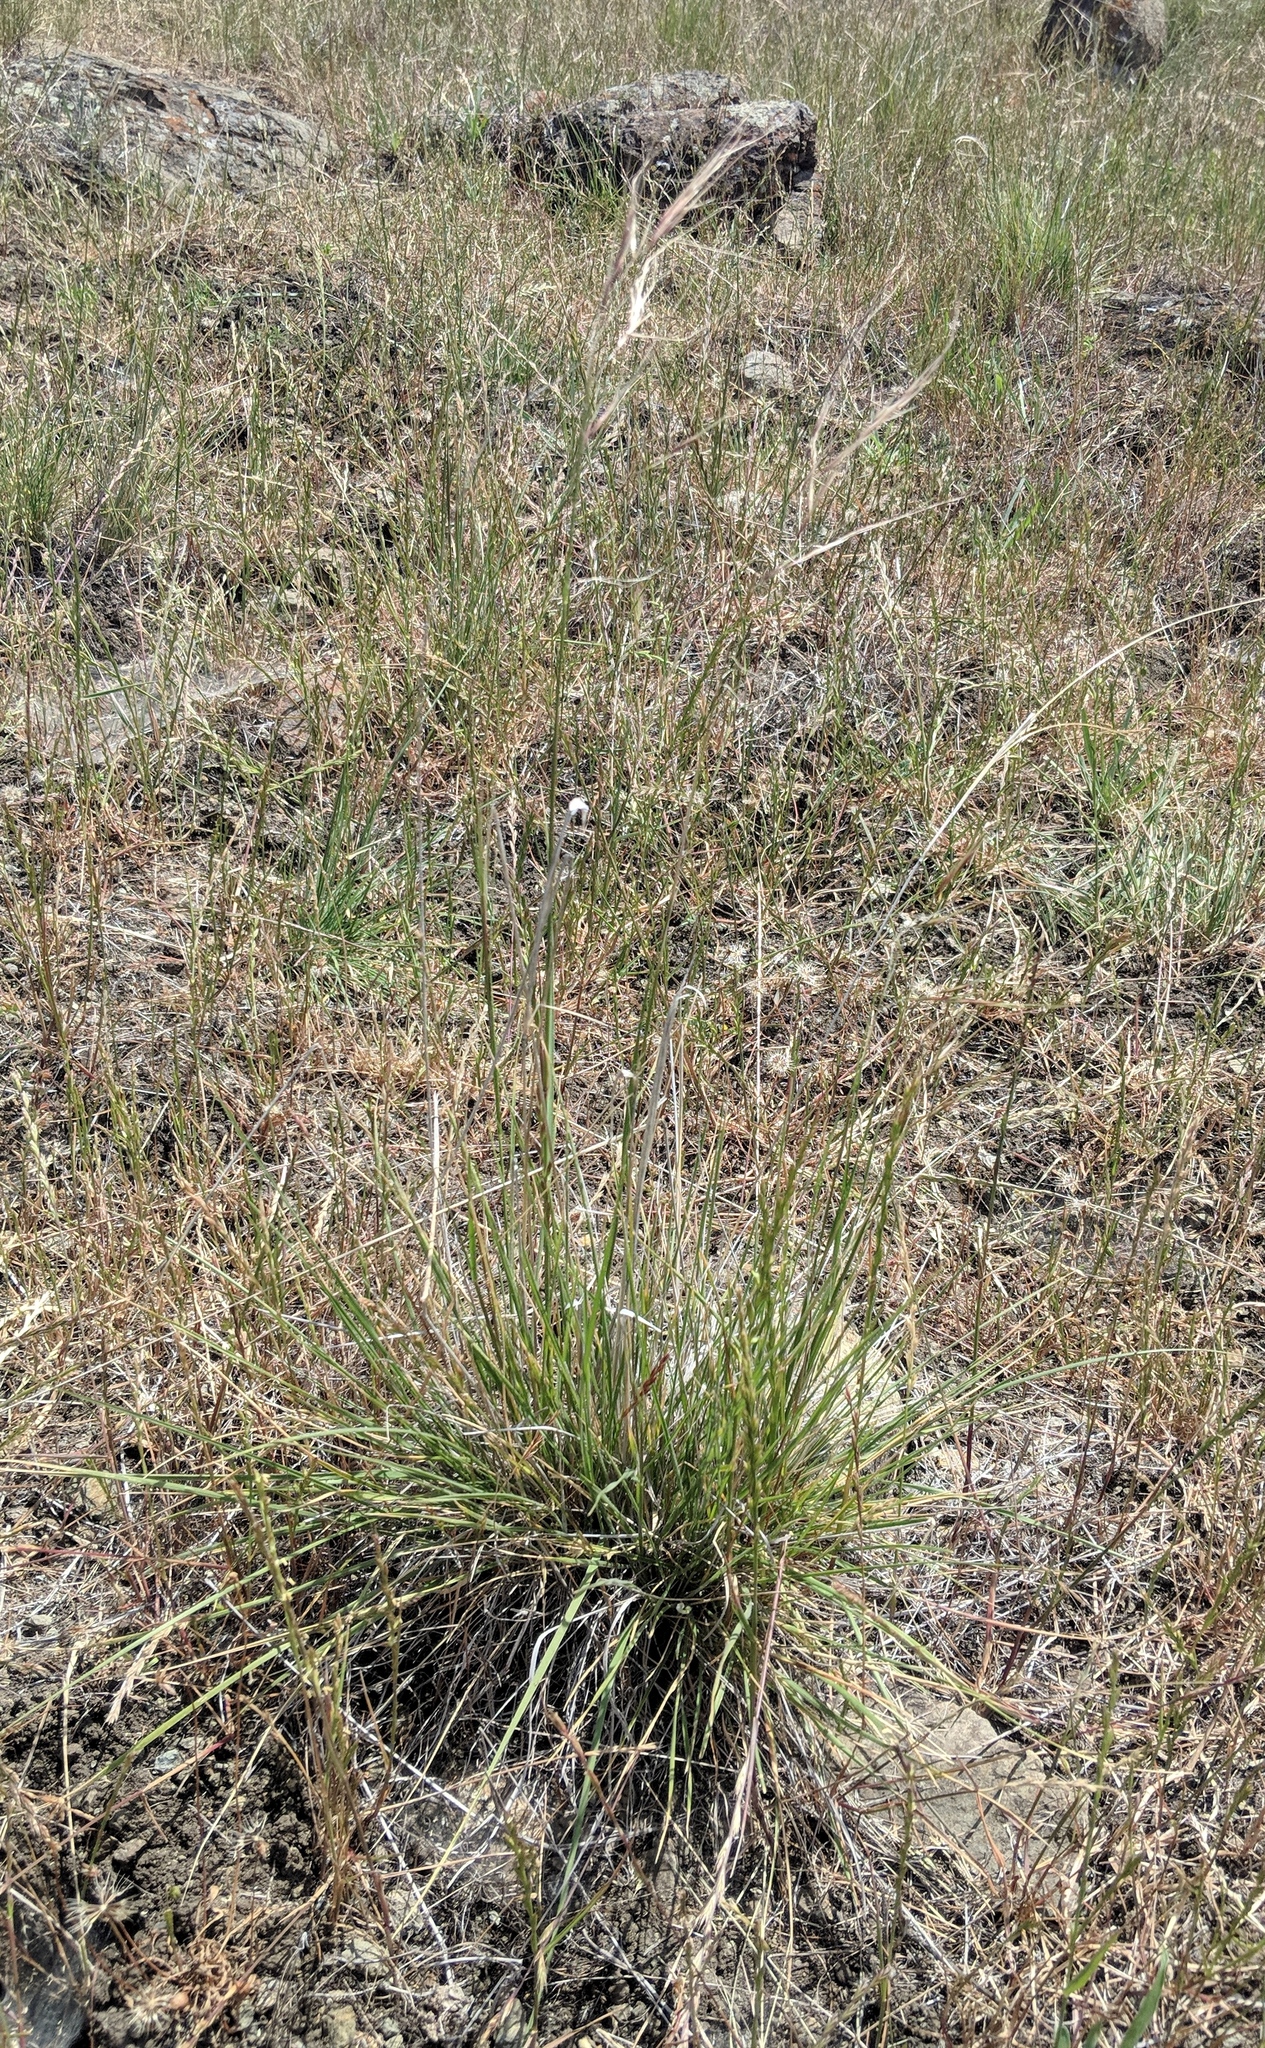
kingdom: Plantae
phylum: Tracheophyta
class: Liliopsida
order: Poales
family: Poaceae
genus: Nassella
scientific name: Nassella pulchra
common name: Purple needlegrass
